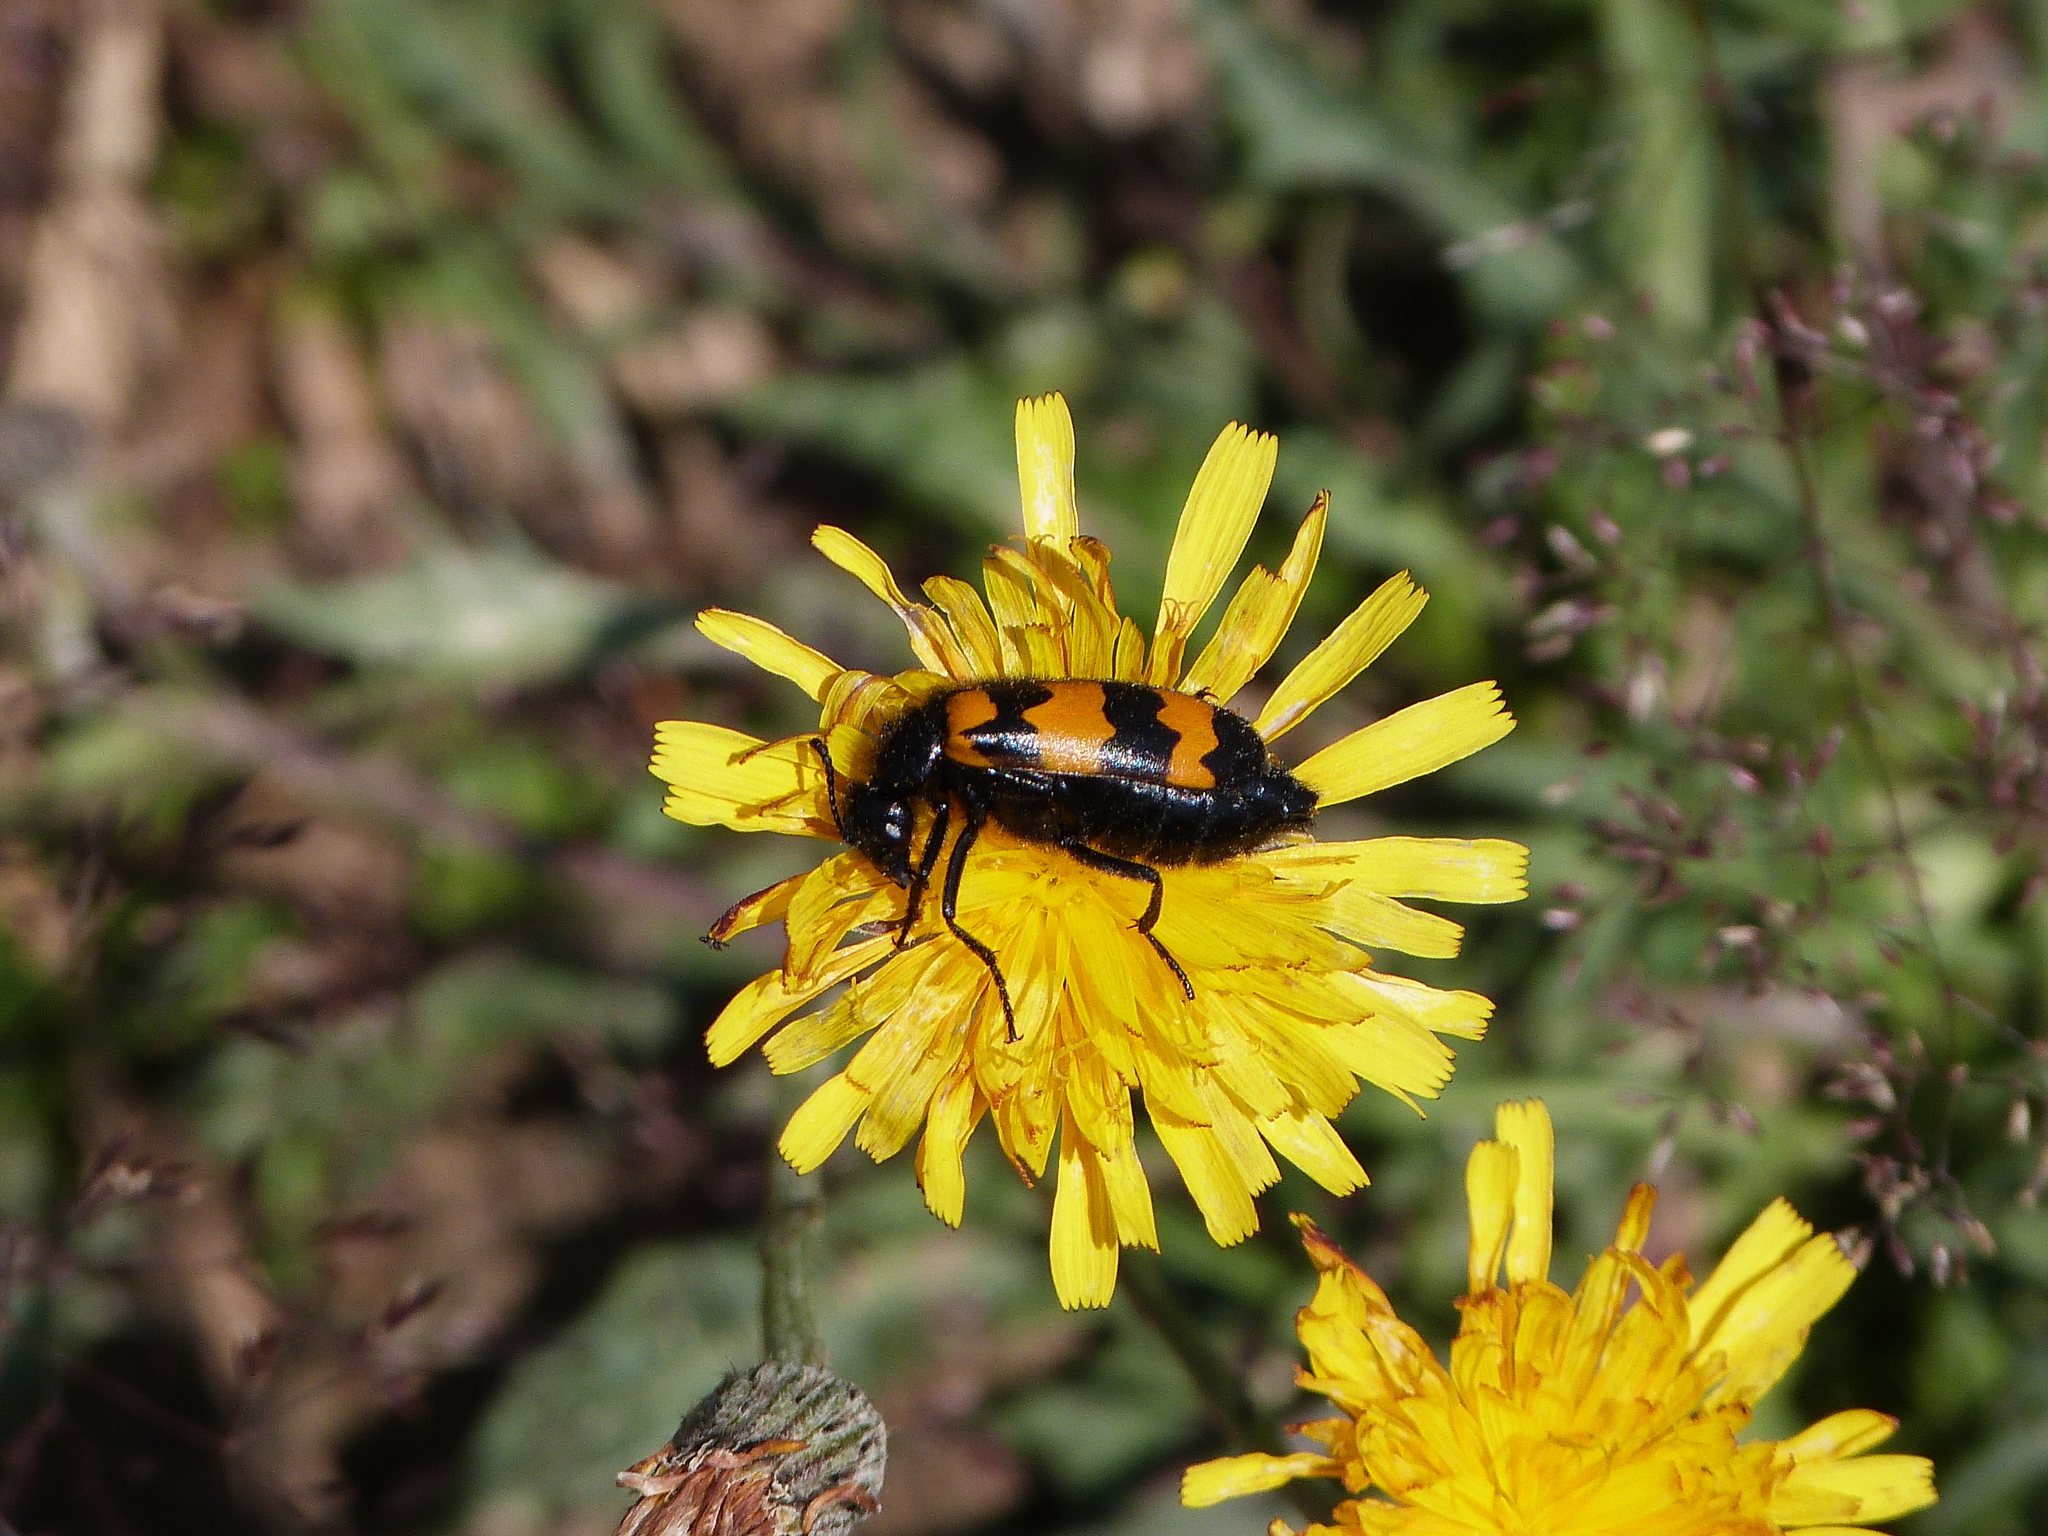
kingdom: Animalia
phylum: Arthropoda
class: Insecta
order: Coleoptera
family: Meloidae
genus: Mylabris
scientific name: Mylabris variabilis
